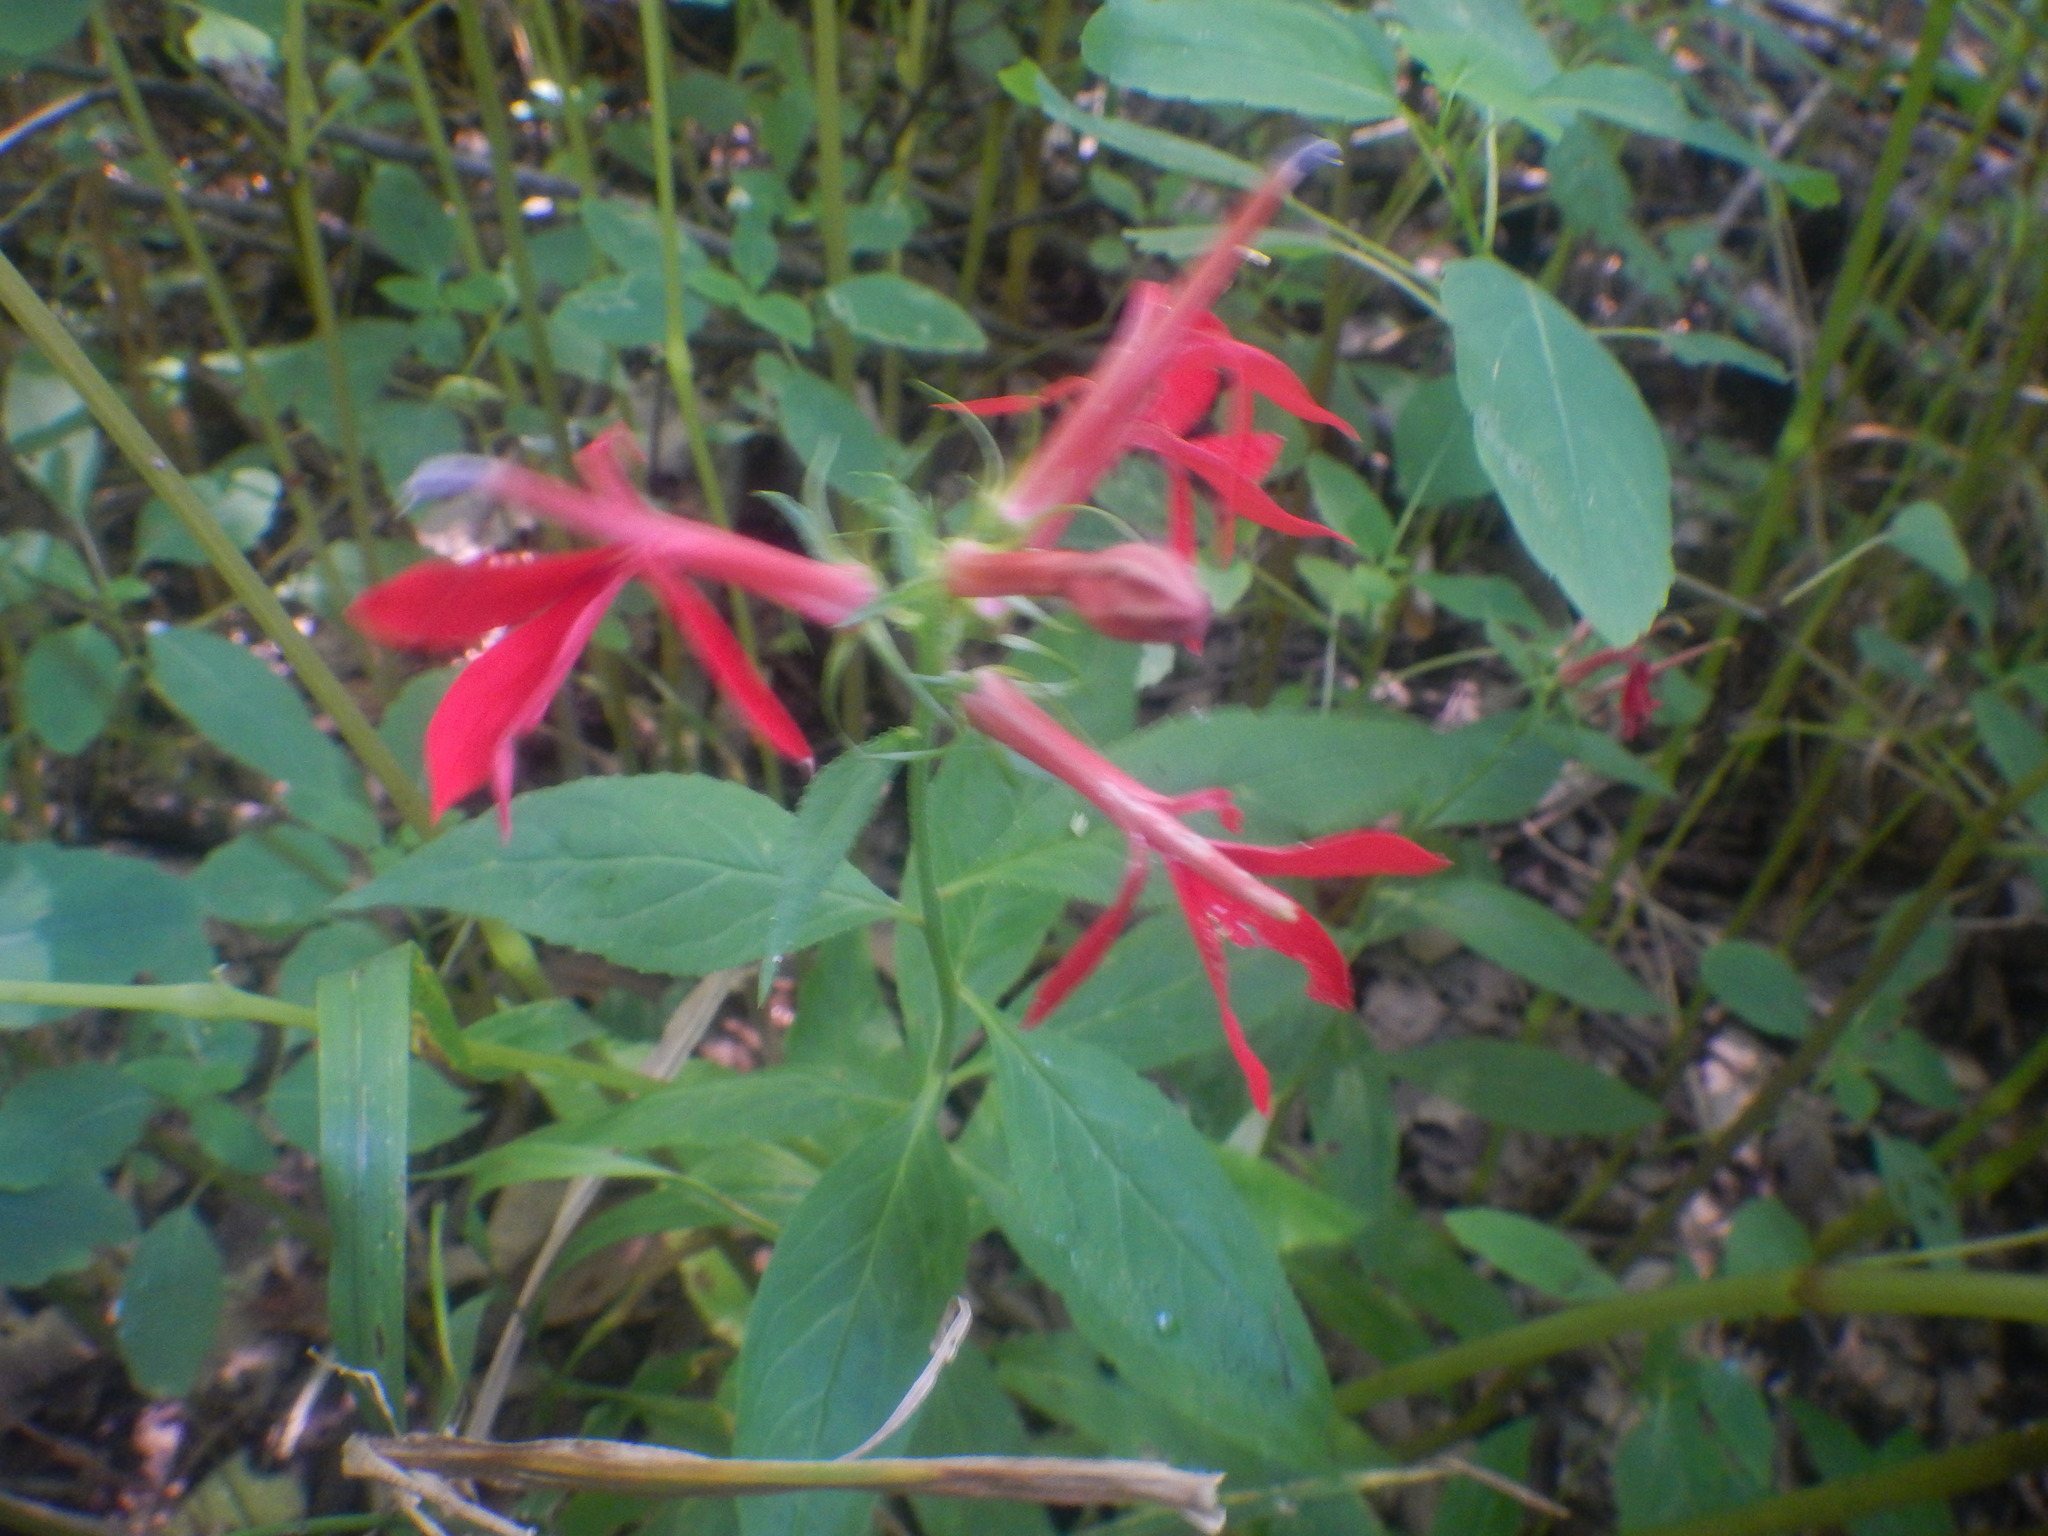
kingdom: Plantae
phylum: Tracheophyta
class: Magnoliopsida
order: Asterales
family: Campanulaceae
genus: Lobelia
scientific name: Lobelia cardinalis
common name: Cardinal flower
